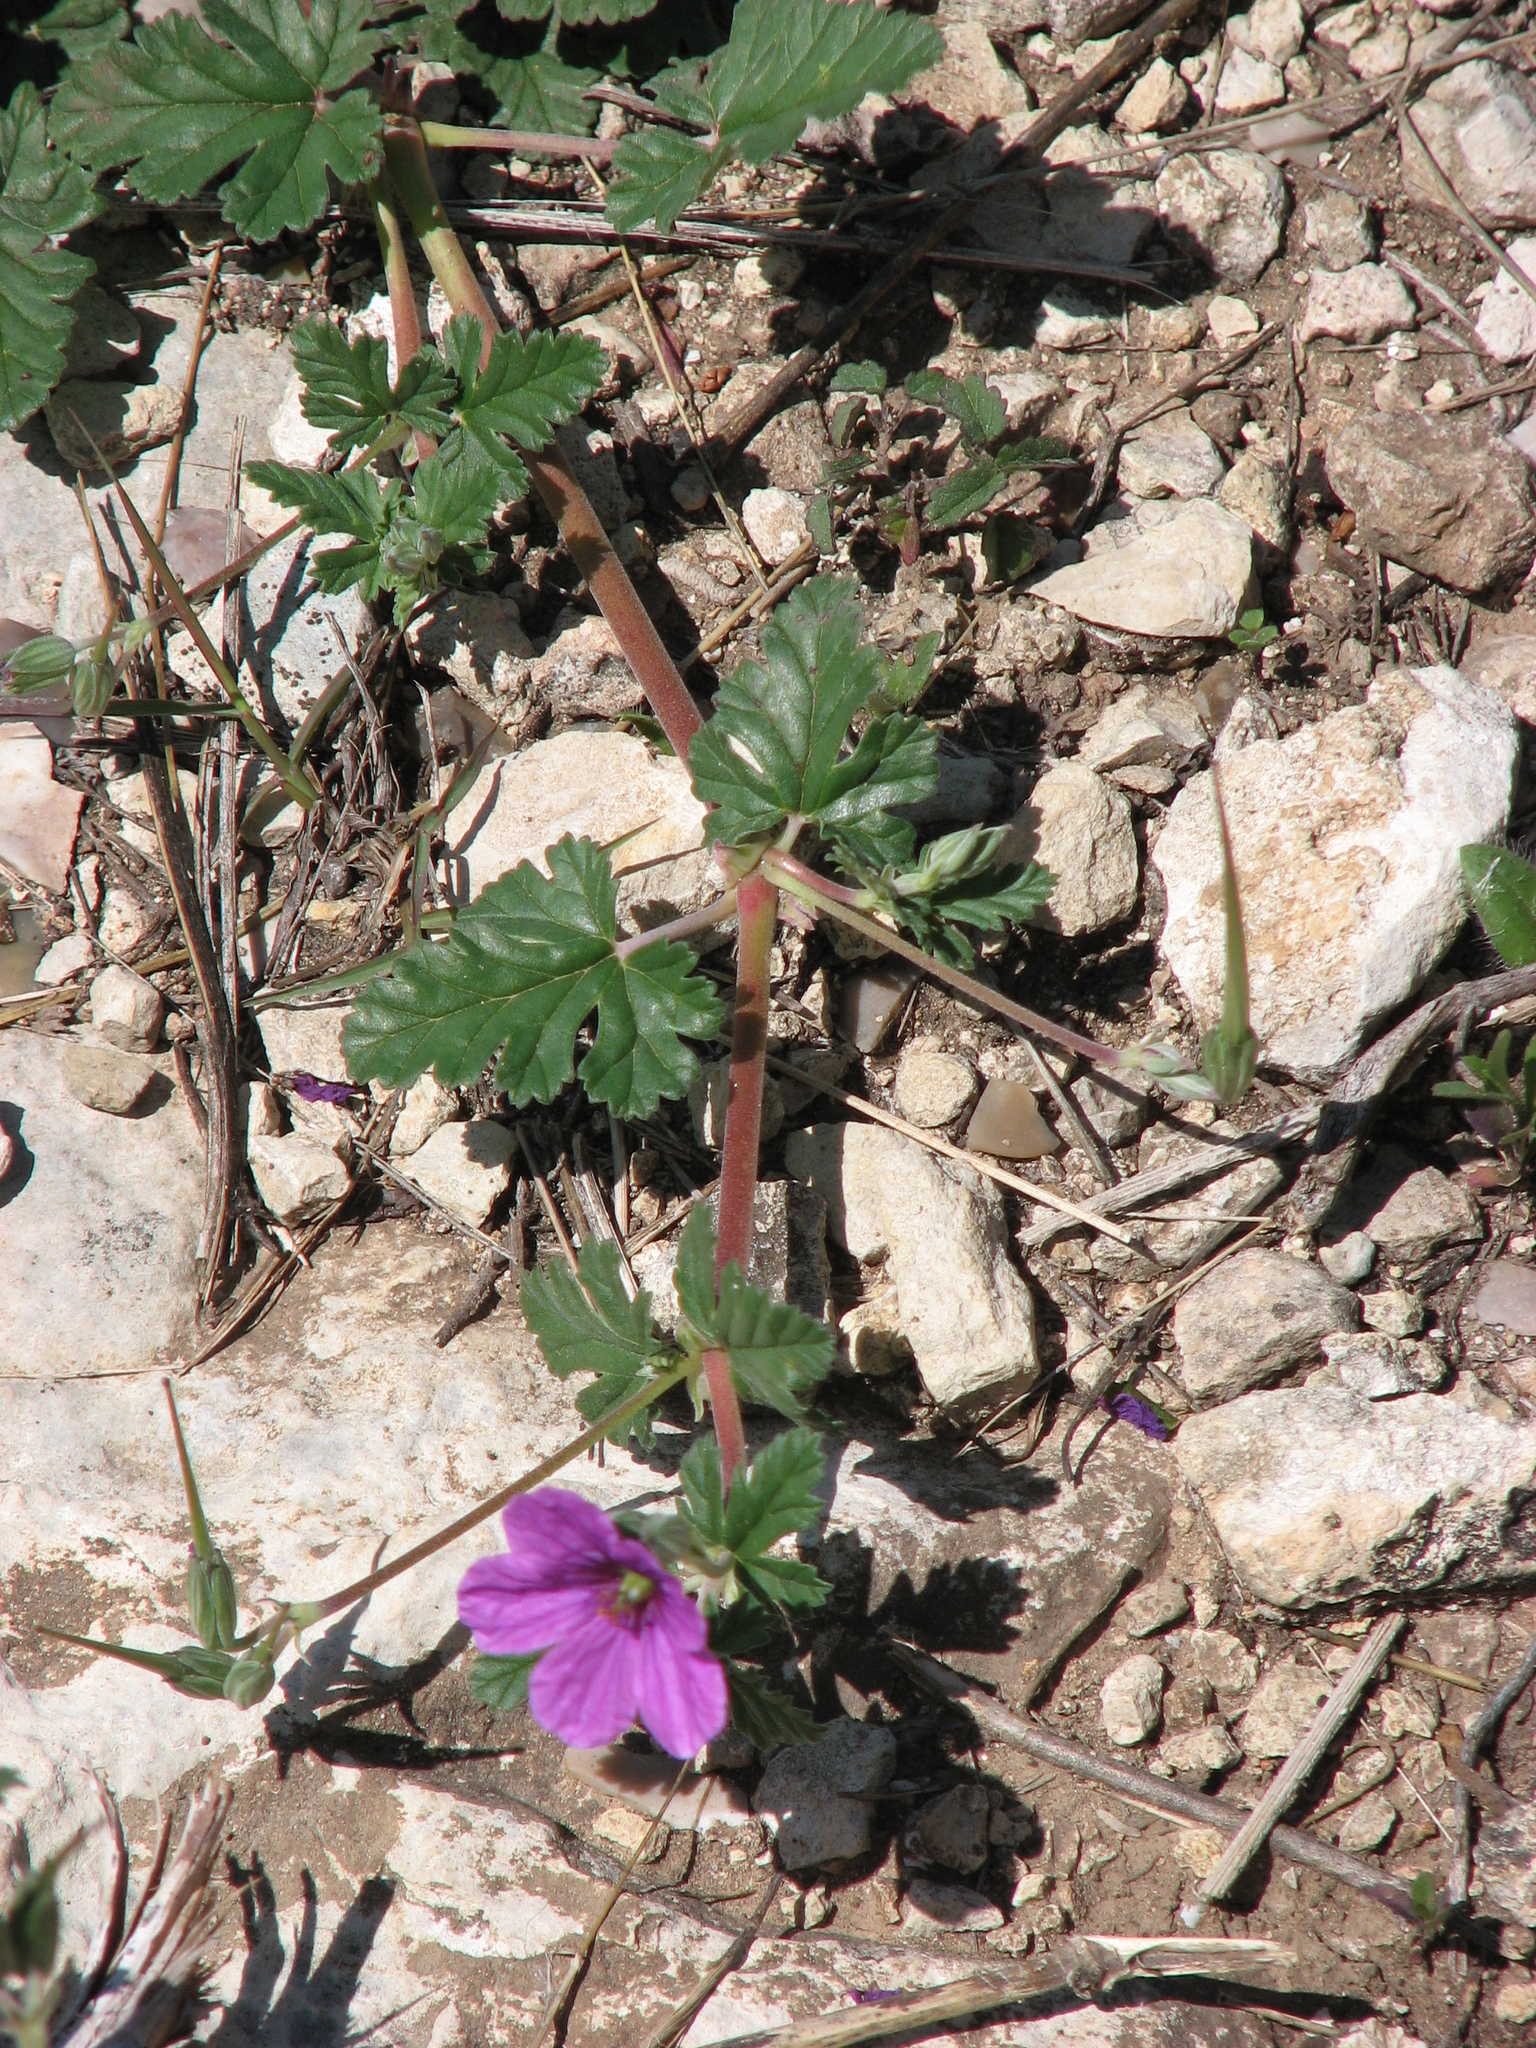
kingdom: Plantae
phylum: Tracheophyta
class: Magnoliopsida
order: Geraniales
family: Geraniaceae
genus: Erodium
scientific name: Erodium texanum
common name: Texas stork's-bill
